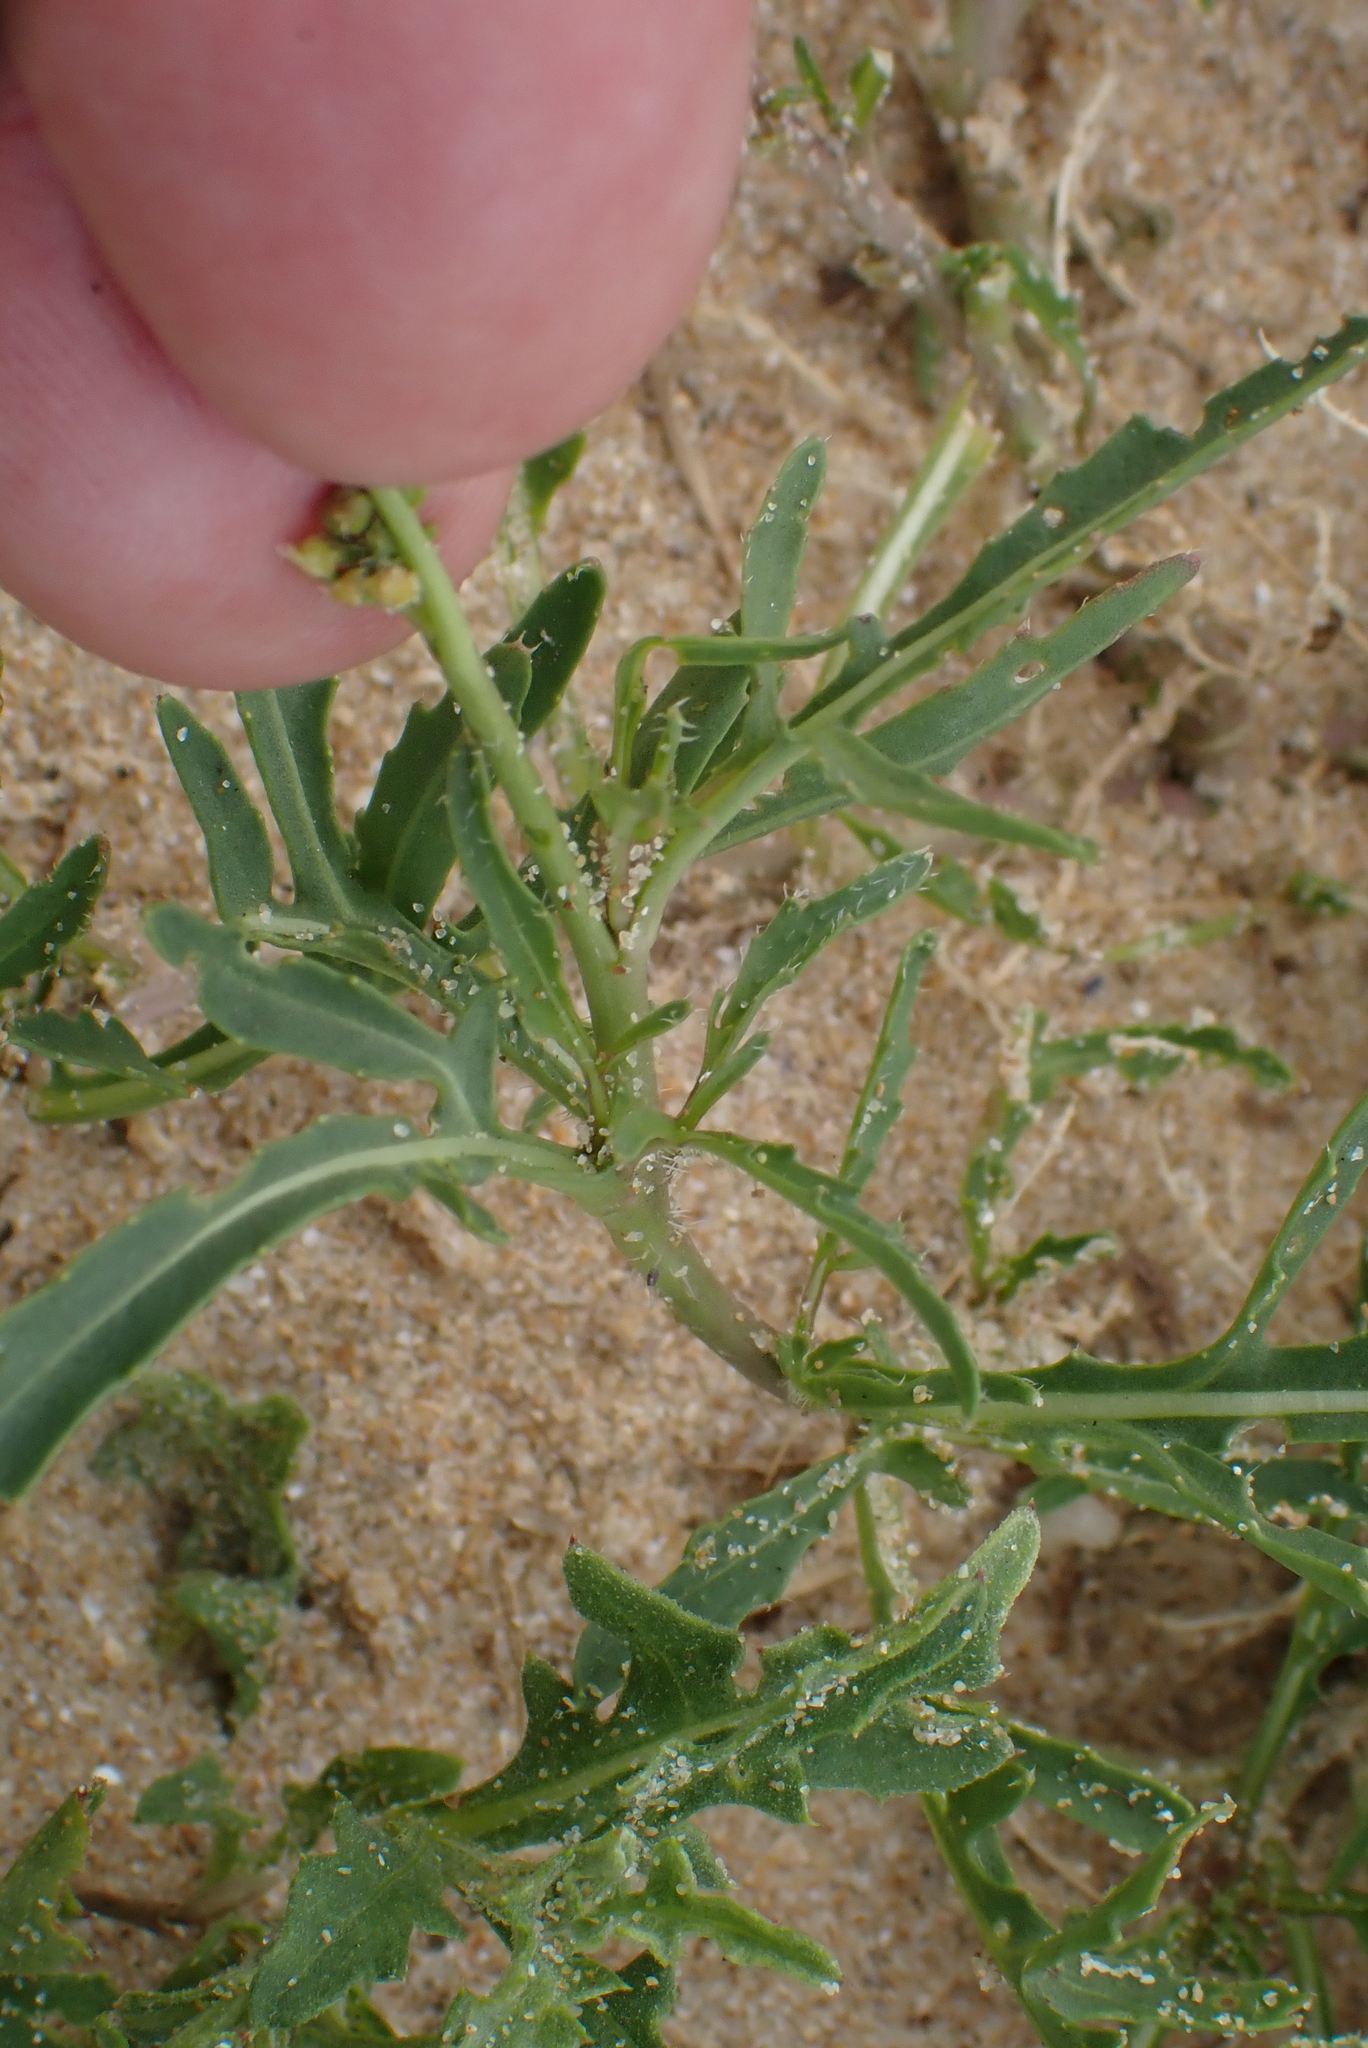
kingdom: Plantae
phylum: Tracheophyta
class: Magnoliopsida
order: Brassicales
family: Brassicaceae
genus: Diplotaxis
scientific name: Diplotaxis tenuifolia
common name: Perennial wall-rocket
